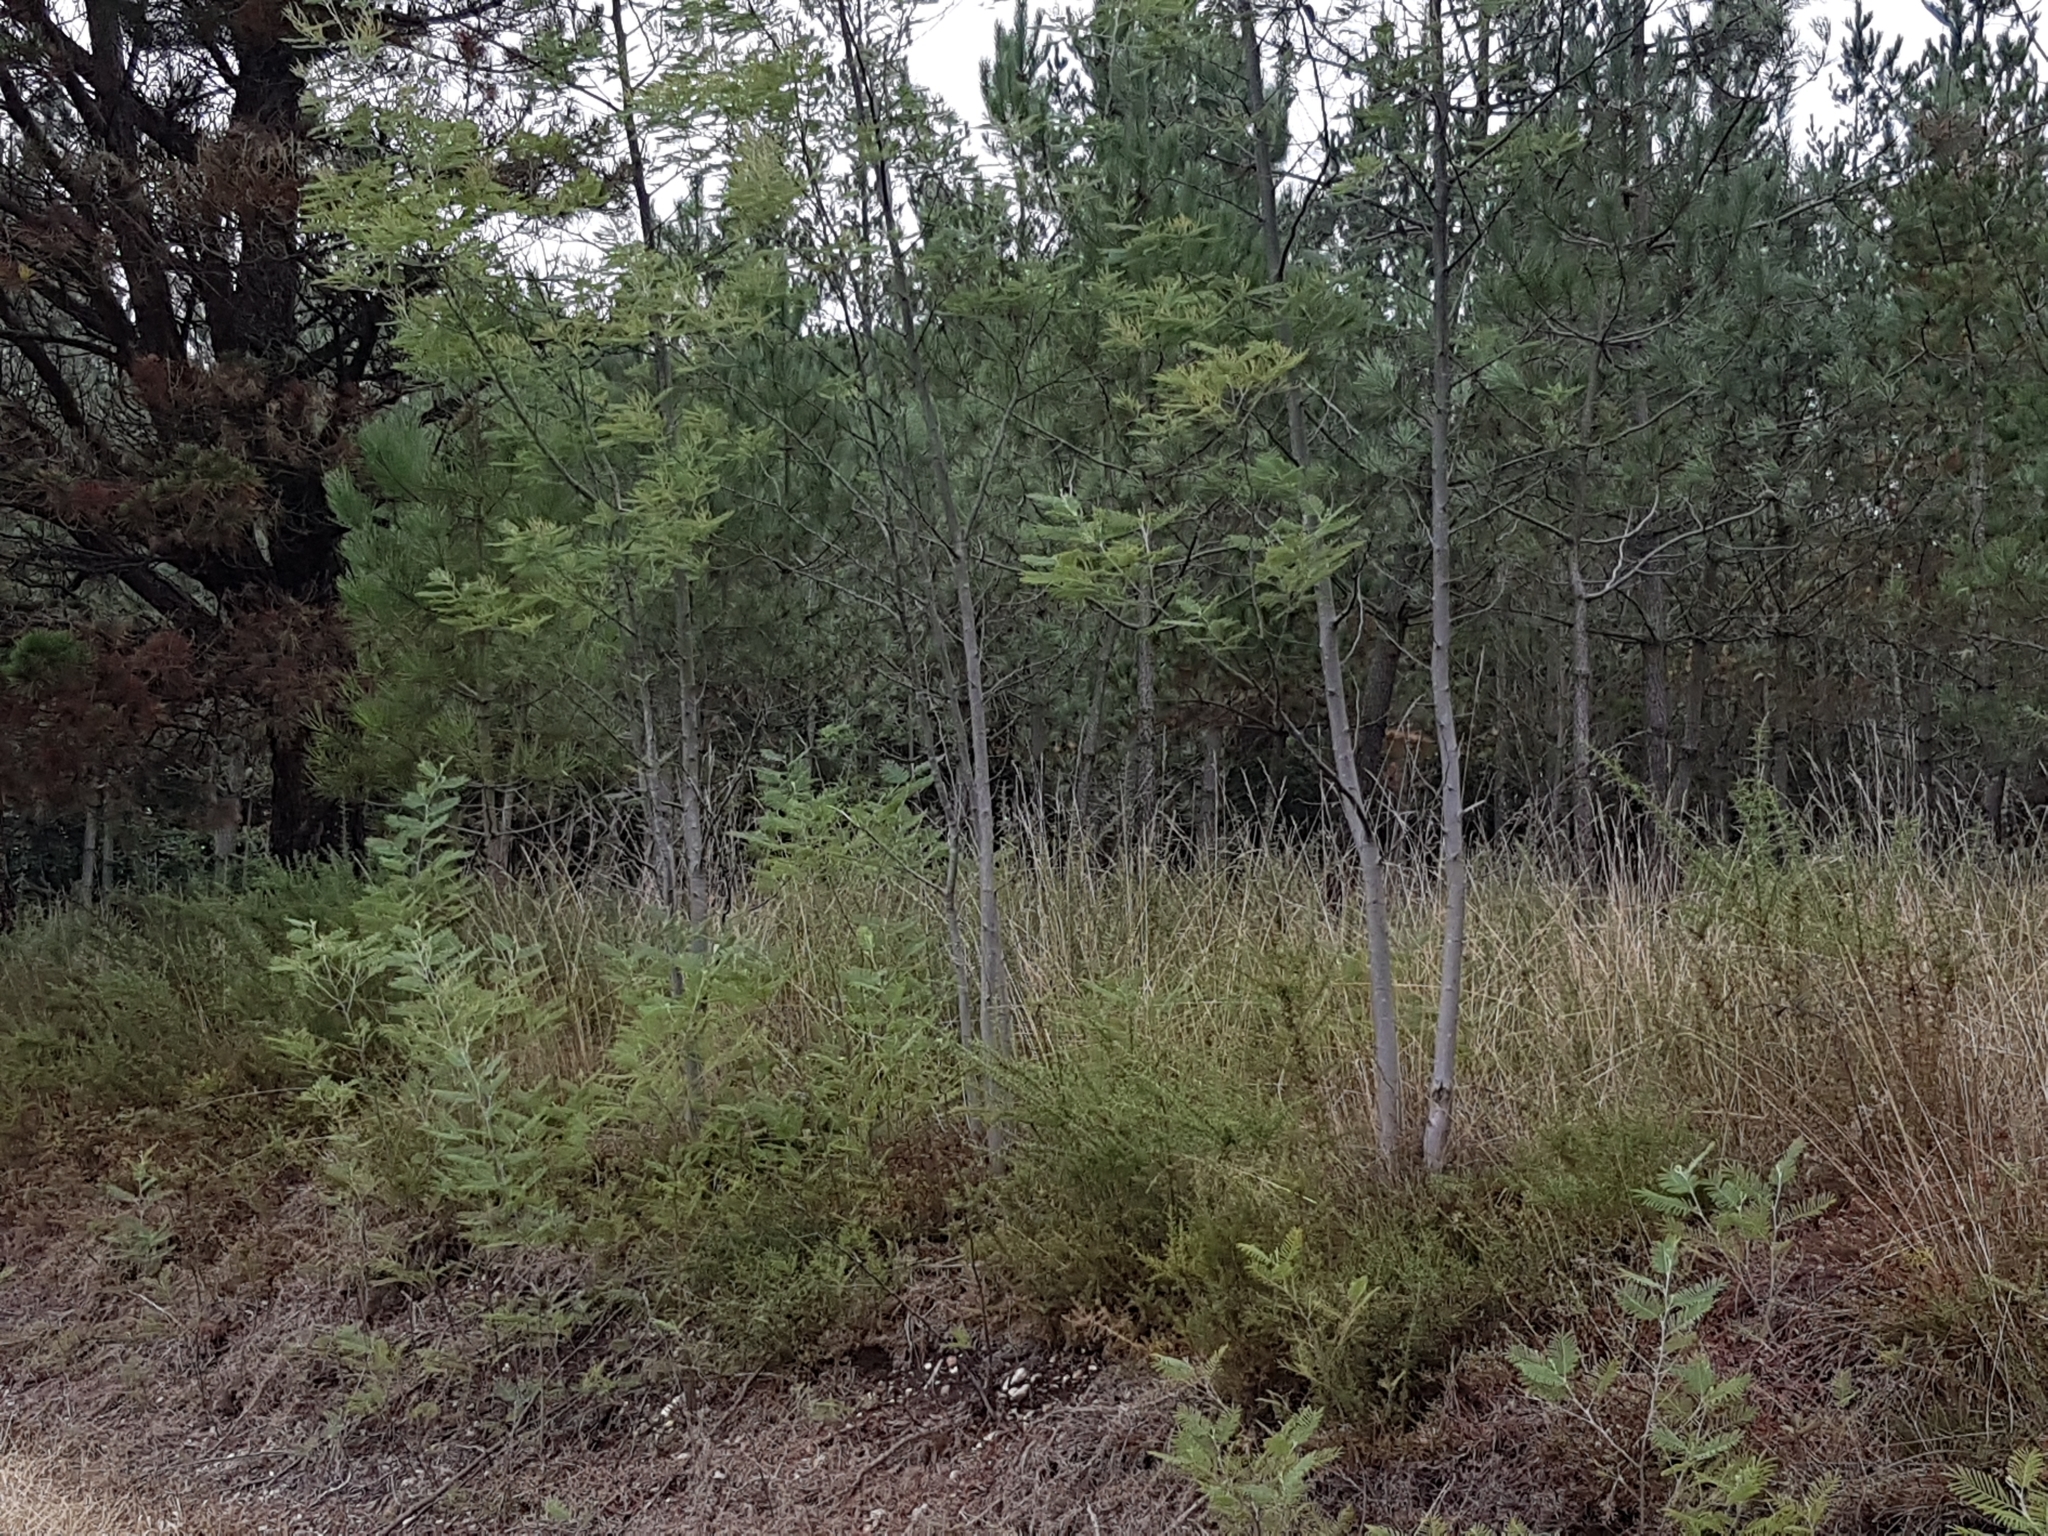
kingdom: Plantae
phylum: Tracheophyta
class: Magnoliopsida
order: Fabales
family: Fabaceae
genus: Acacia
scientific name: Acacia dealbata
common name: Silver wattle
